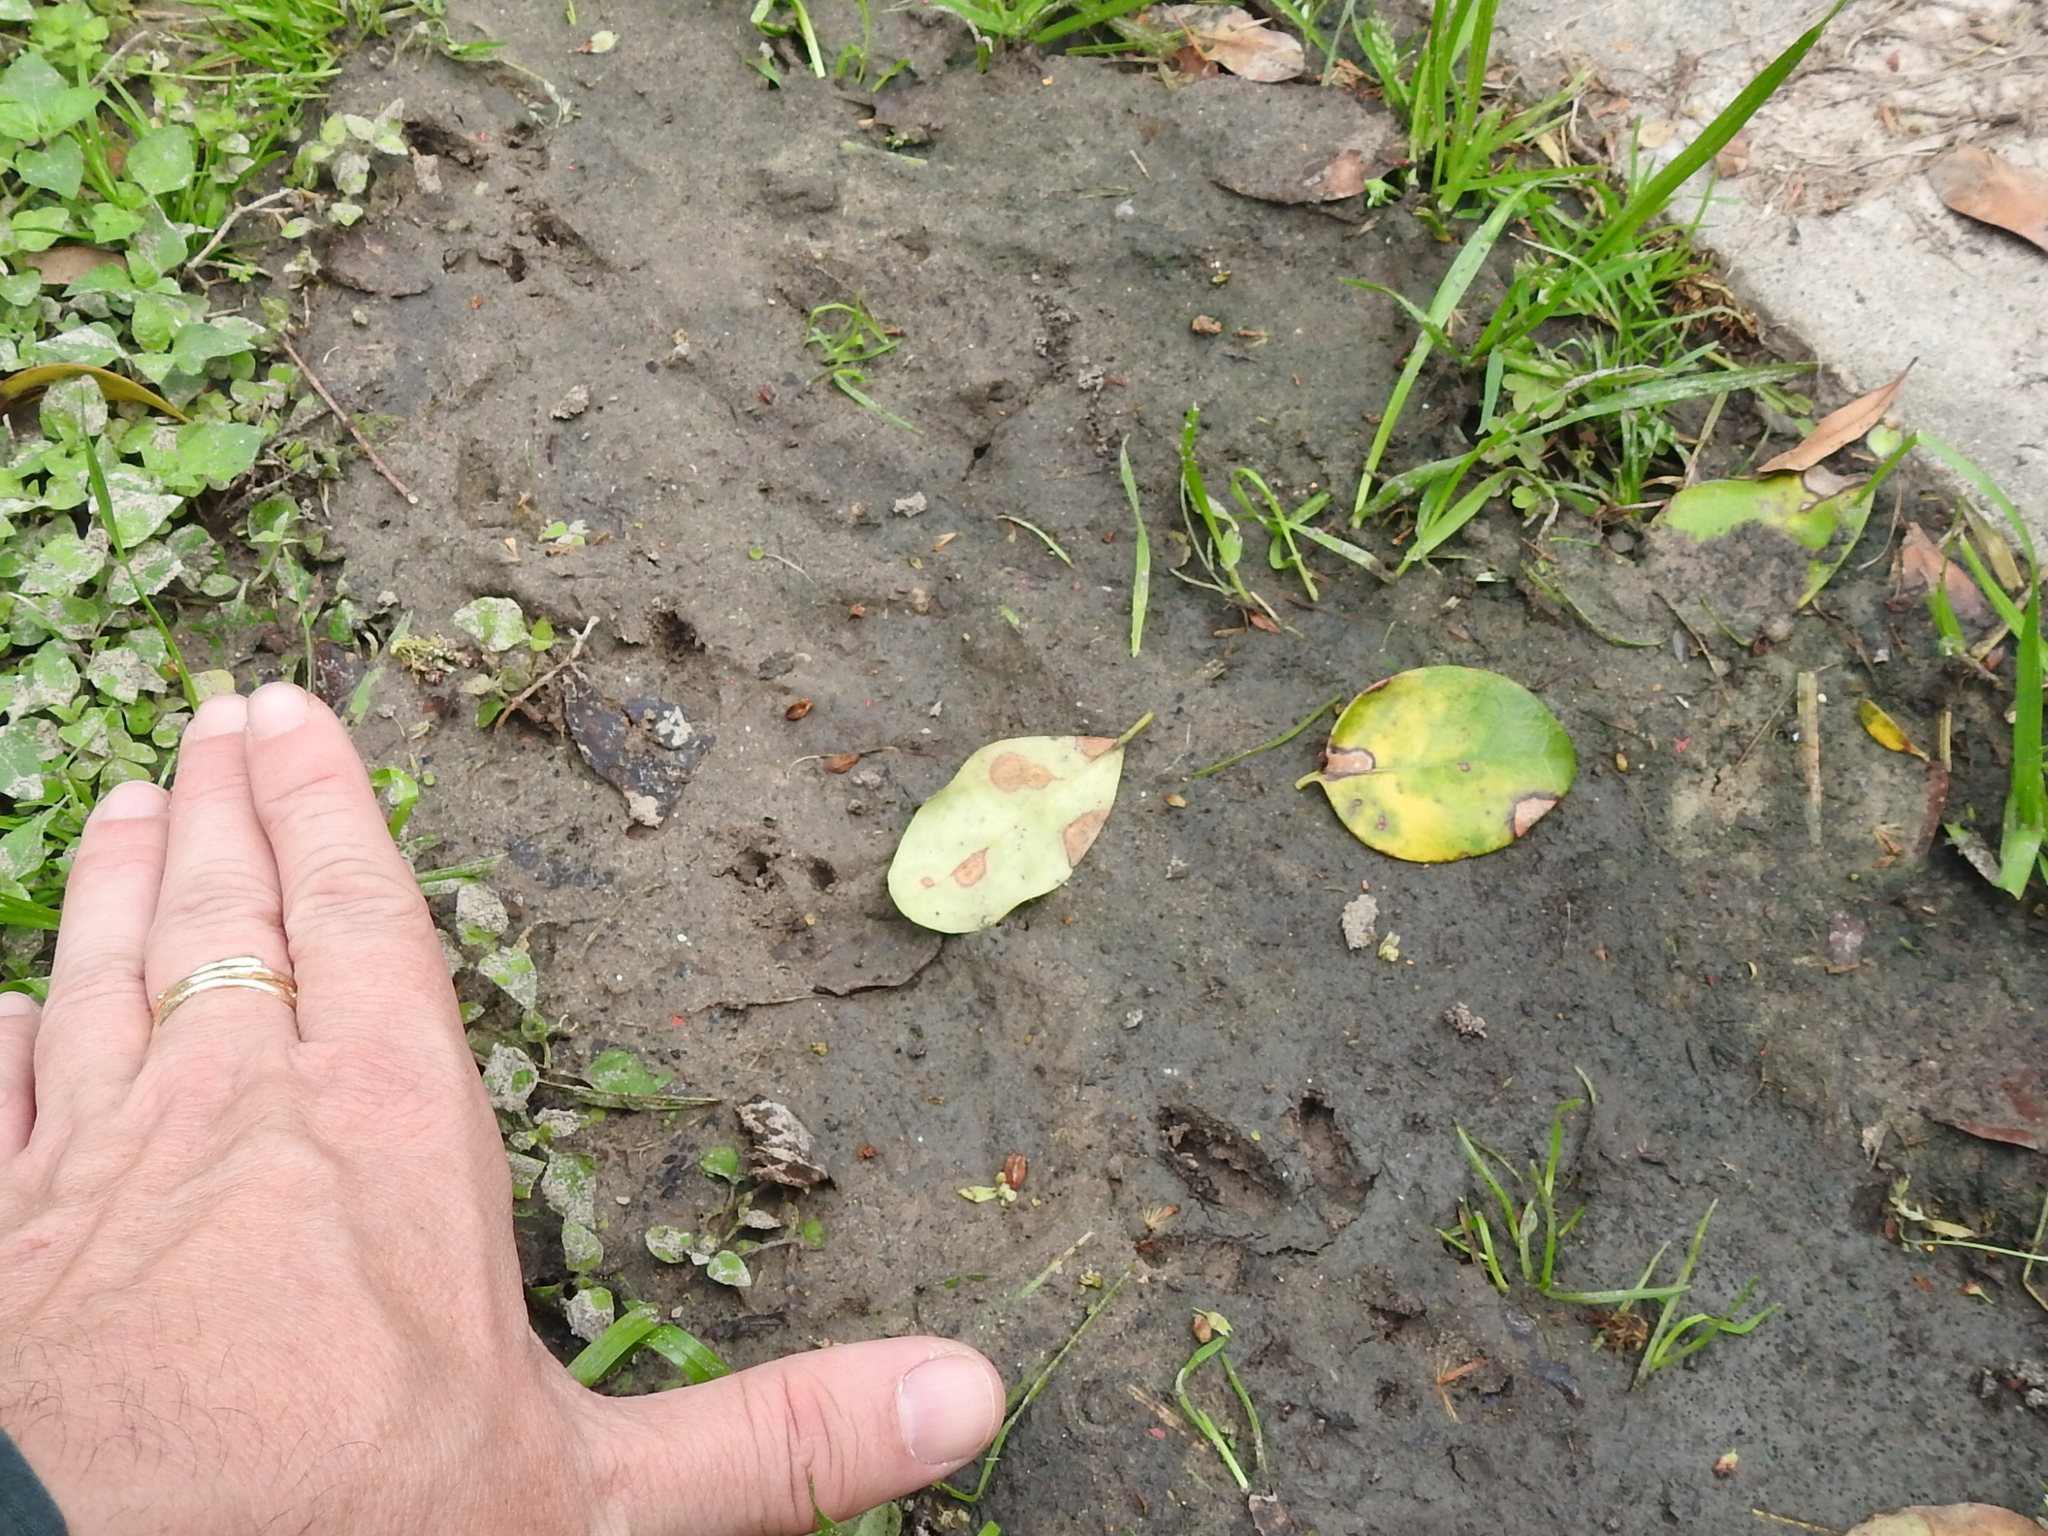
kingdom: Animalia
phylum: Chordata
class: Mammalia
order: Cingulata
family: Dasypodidae
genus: Dasypus
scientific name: Dasypus novemcinctus
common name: Nine-banded armadillo
